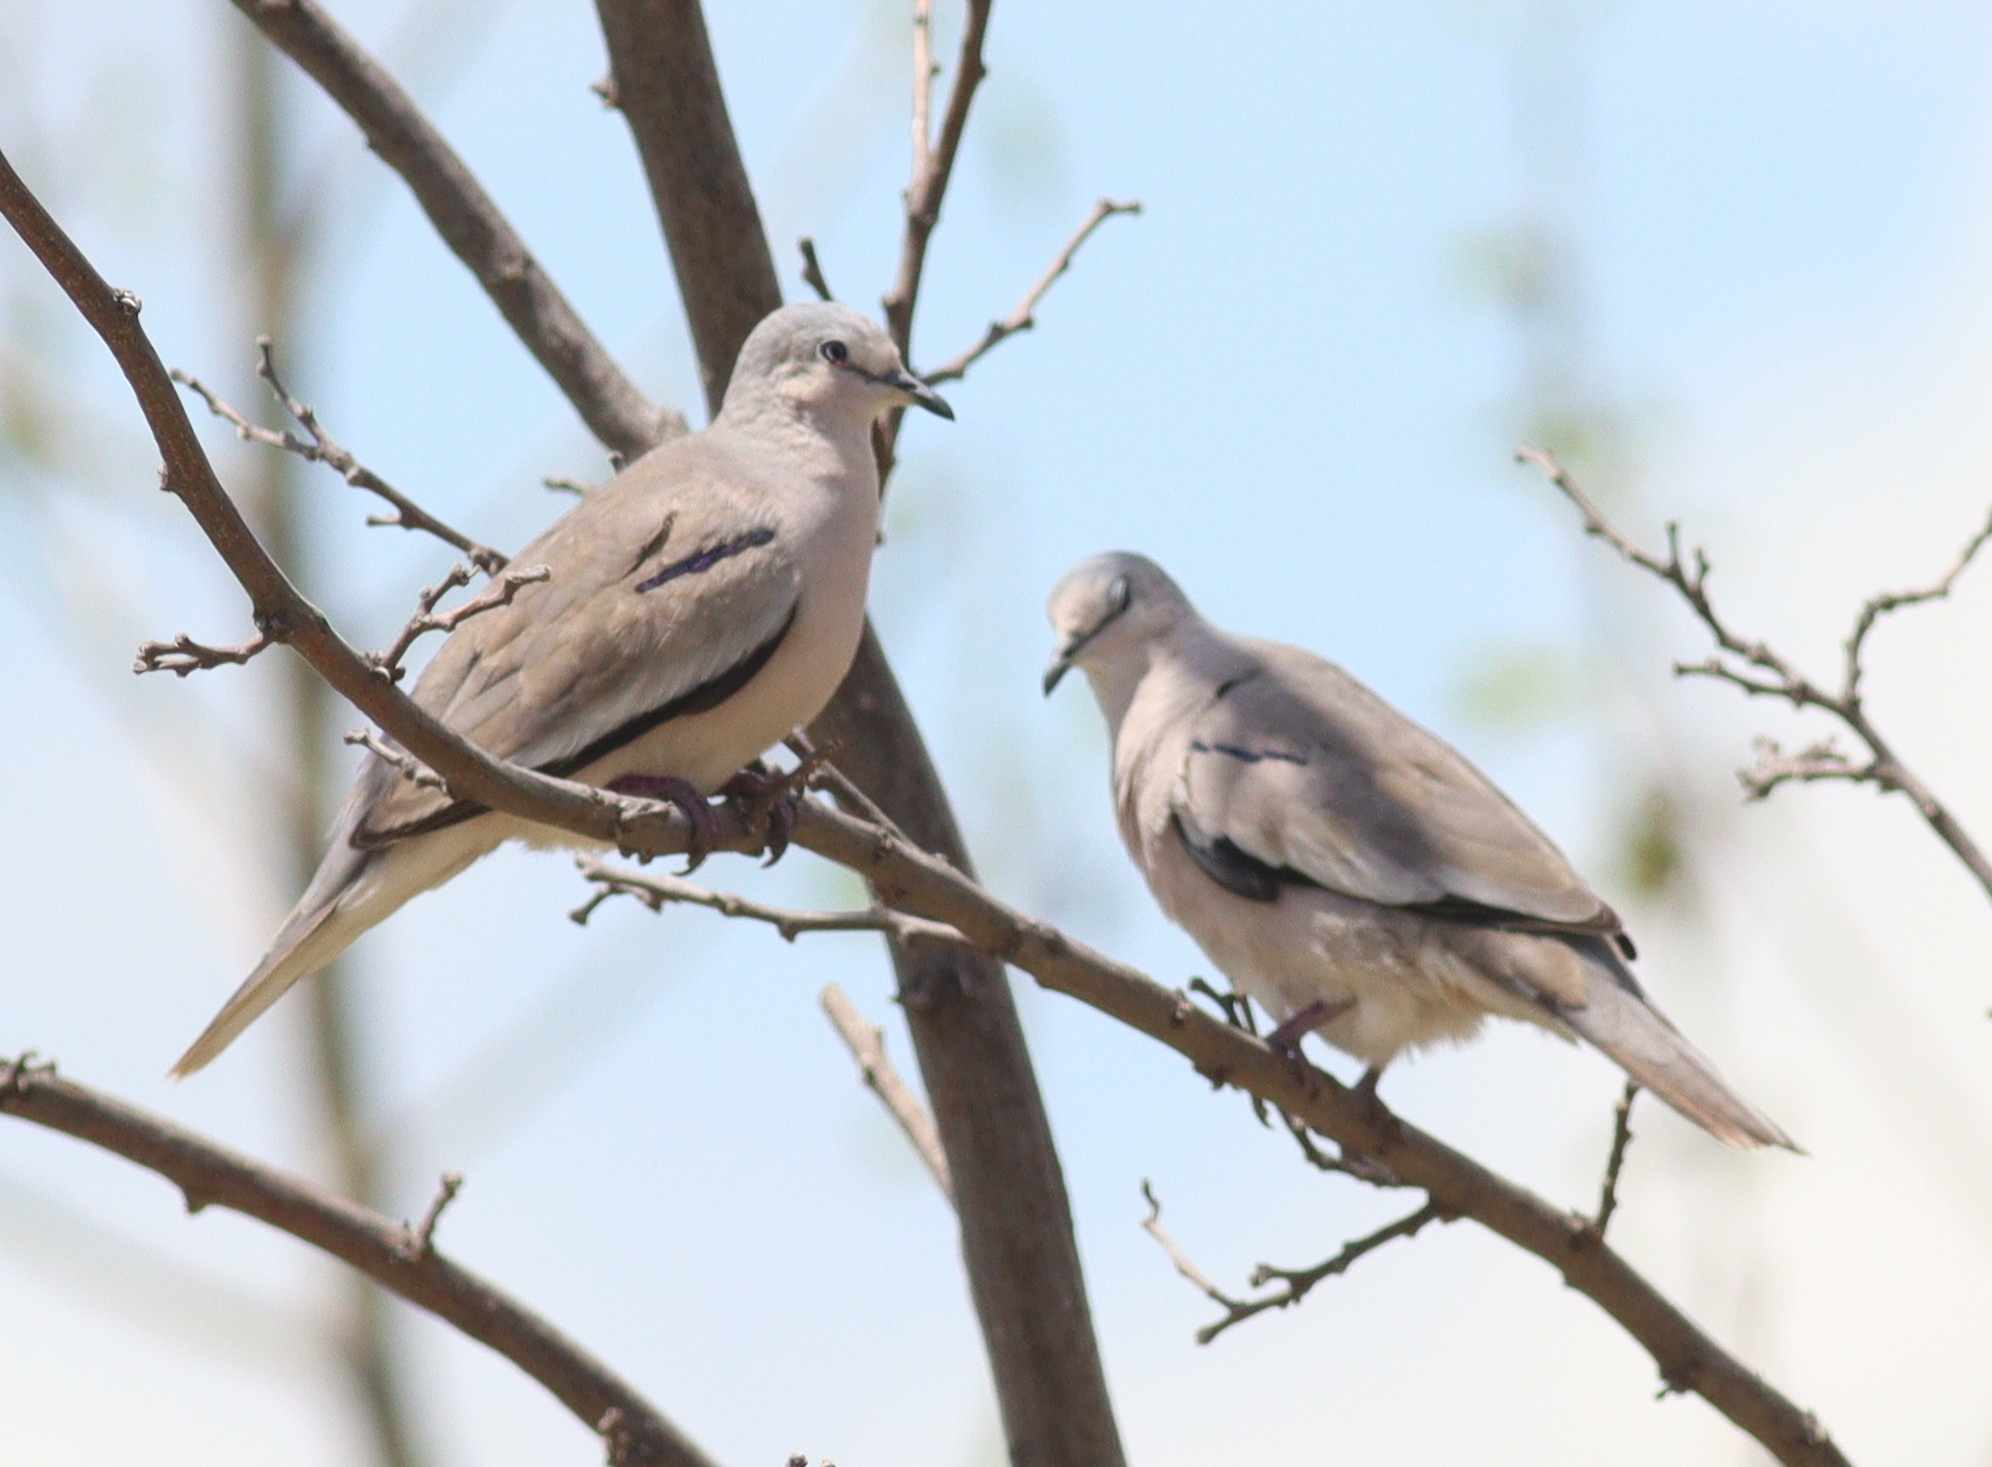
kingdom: Animalia
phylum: Chordata
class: Aves
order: Columbiformes
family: Columbidae
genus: Columbina
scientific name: Columbina picui
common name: Picui ground dove
